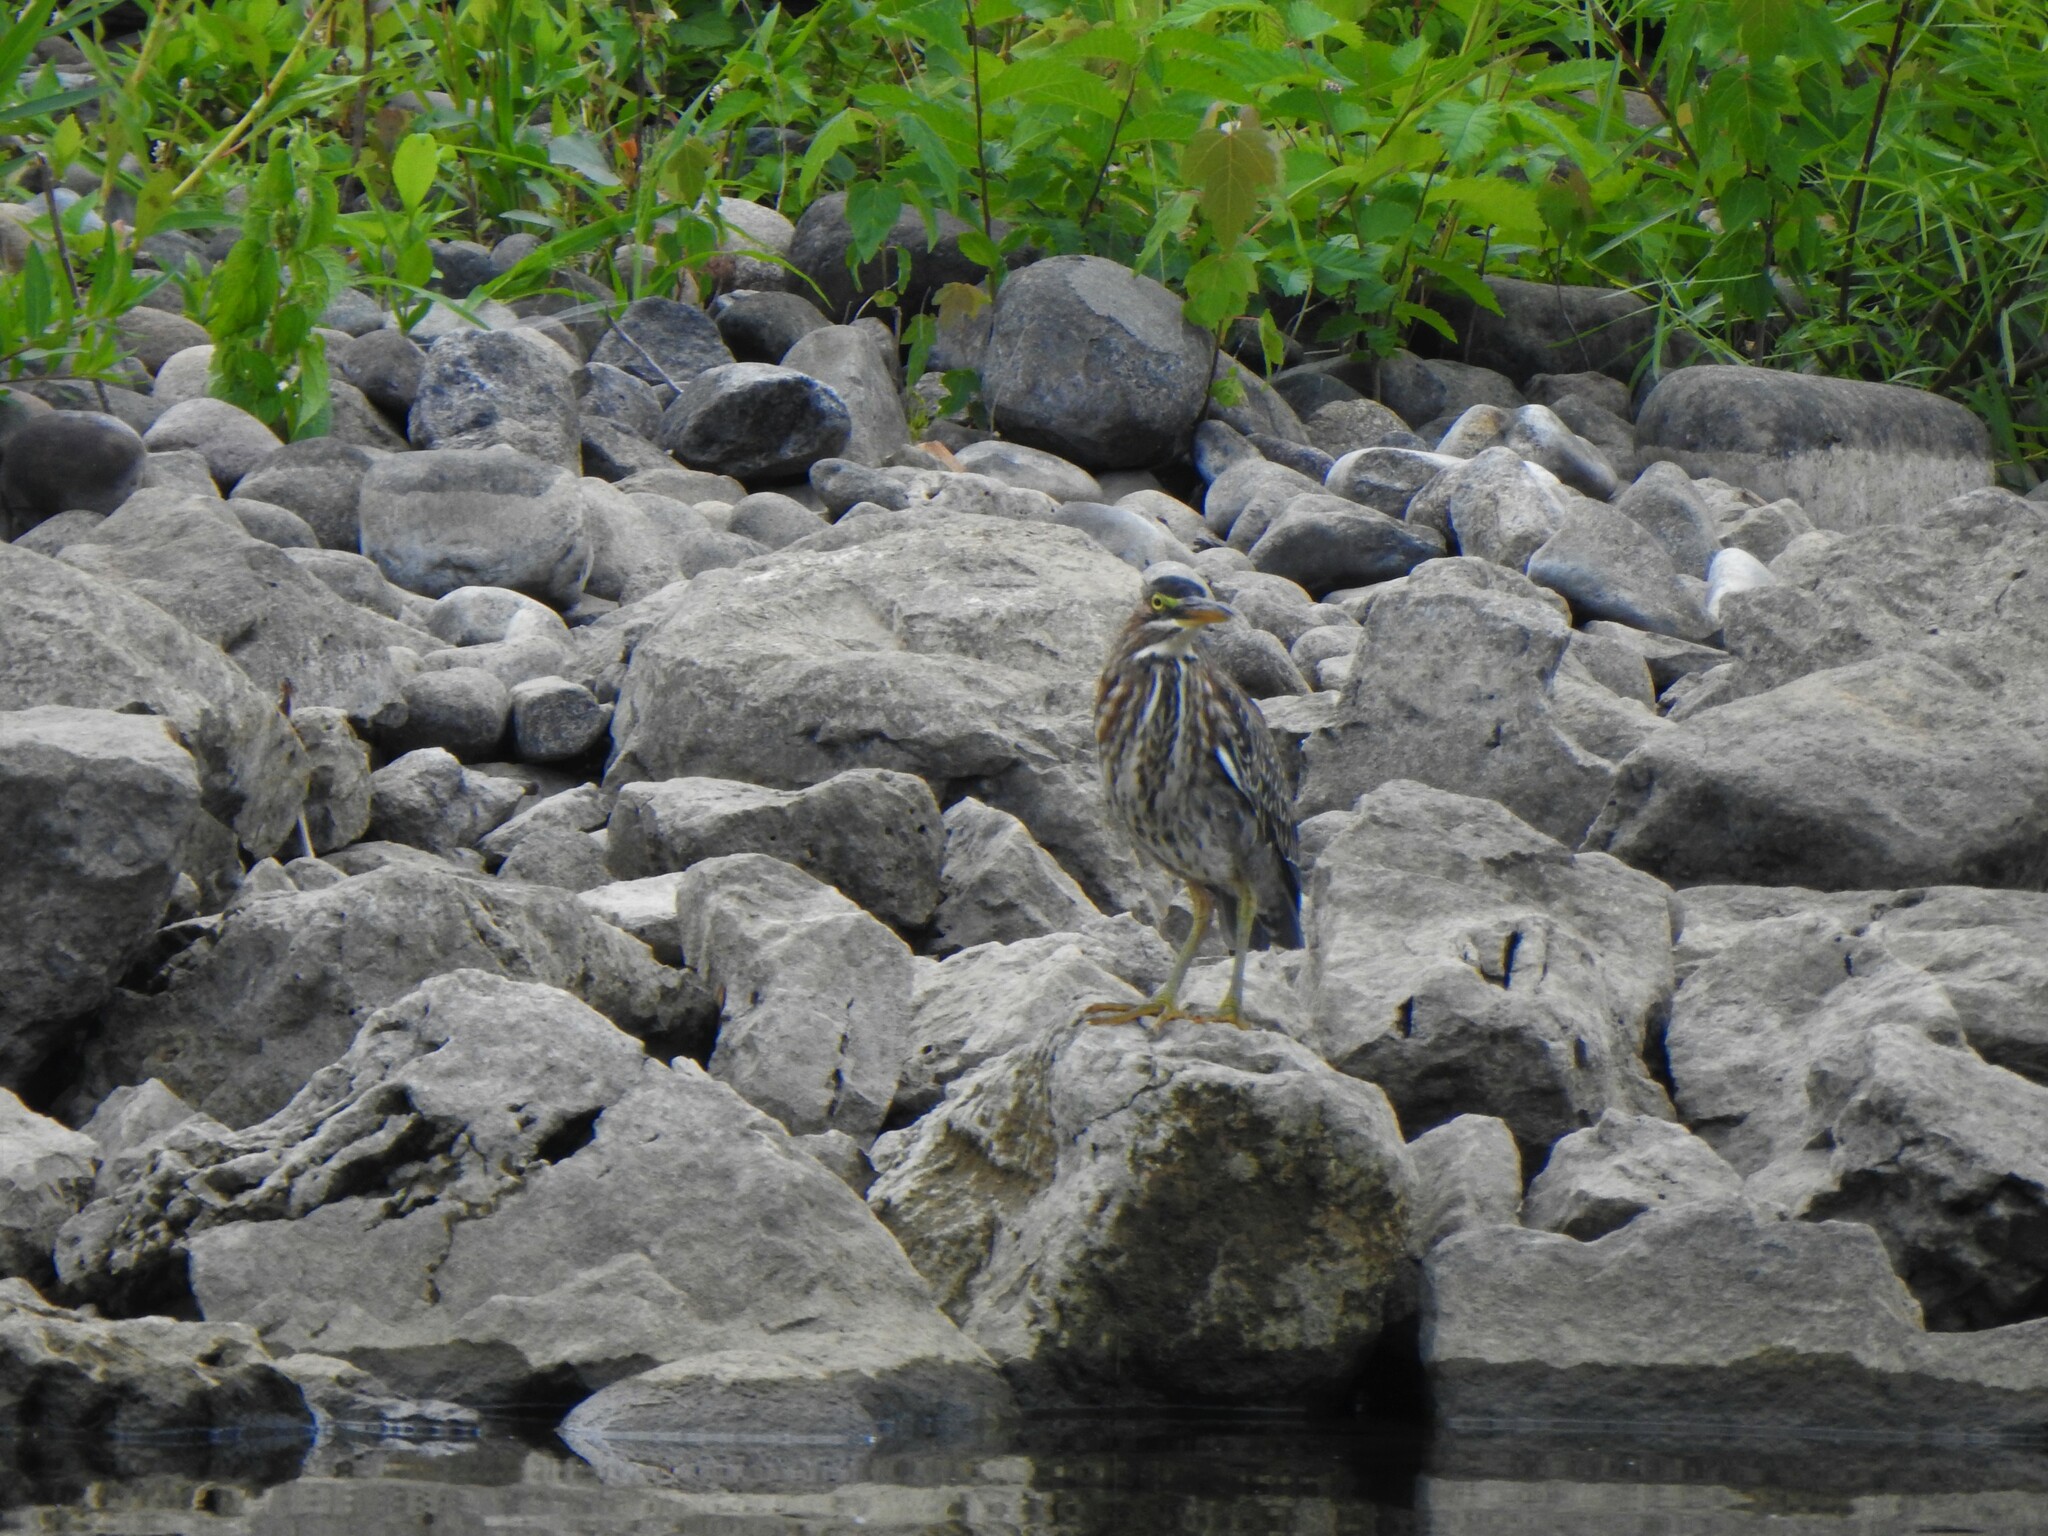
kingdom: Animalia
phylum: Chordata
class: Aves
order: Pelecaniformes
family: Ardeidae
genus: Butorides
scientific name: Butorides virescens
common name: Green heron
